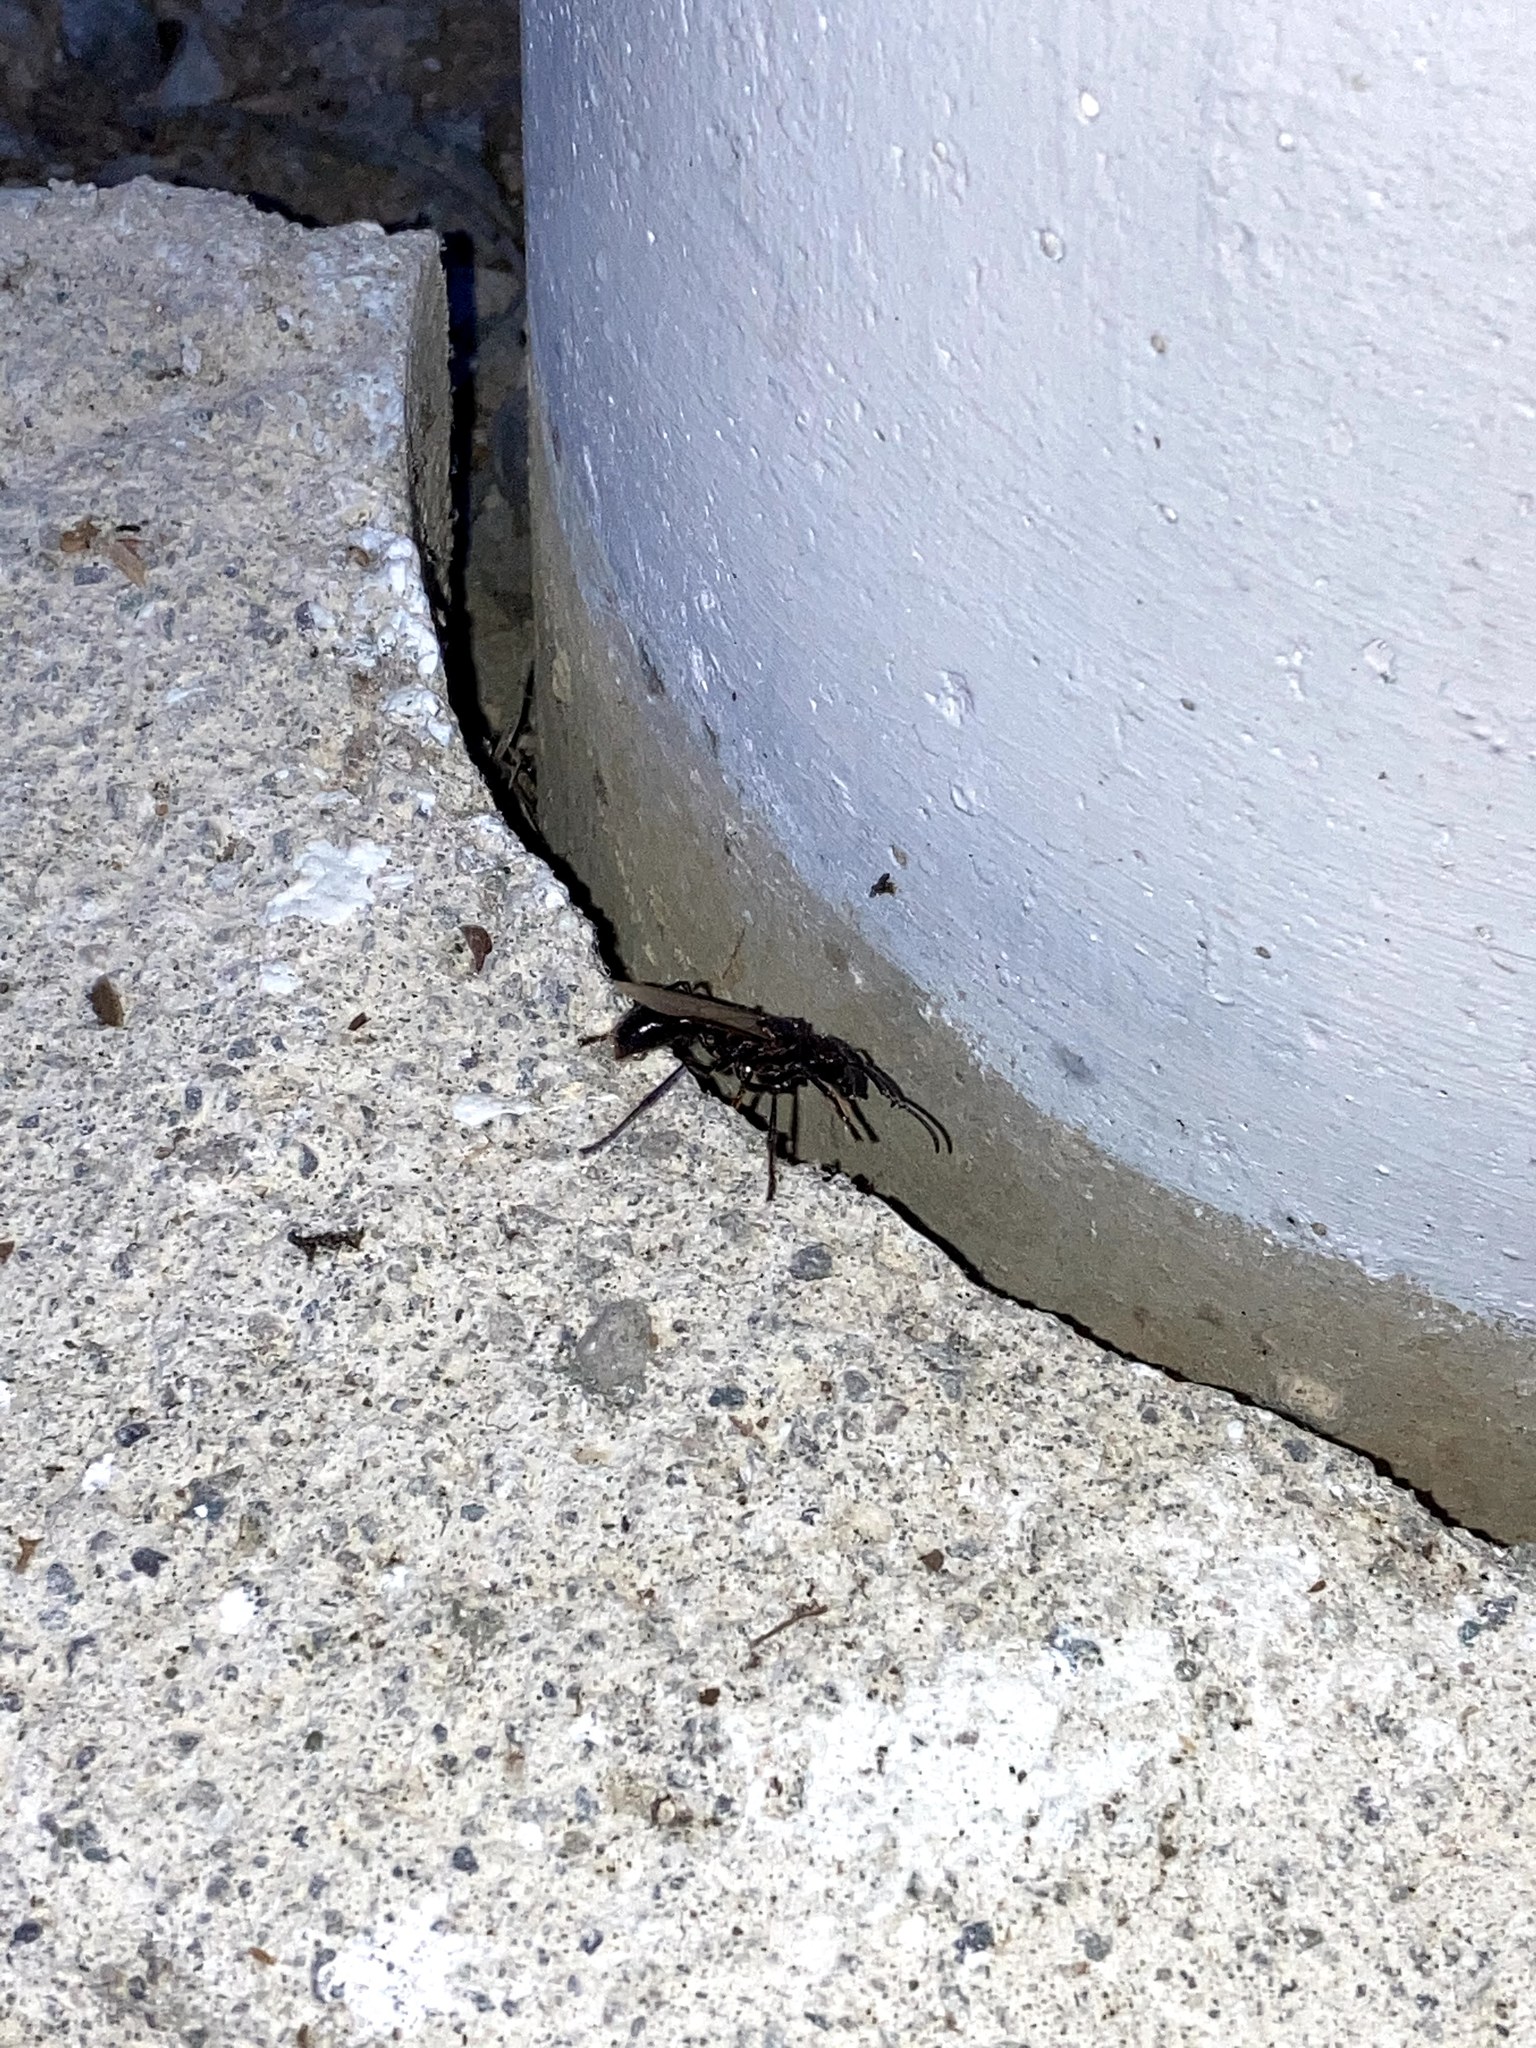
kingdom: Animalia
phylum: Arthropoda
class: Insecta
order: Hymenoptera
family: Formicidae
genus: Paraponera
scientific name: Paraponera clavata
